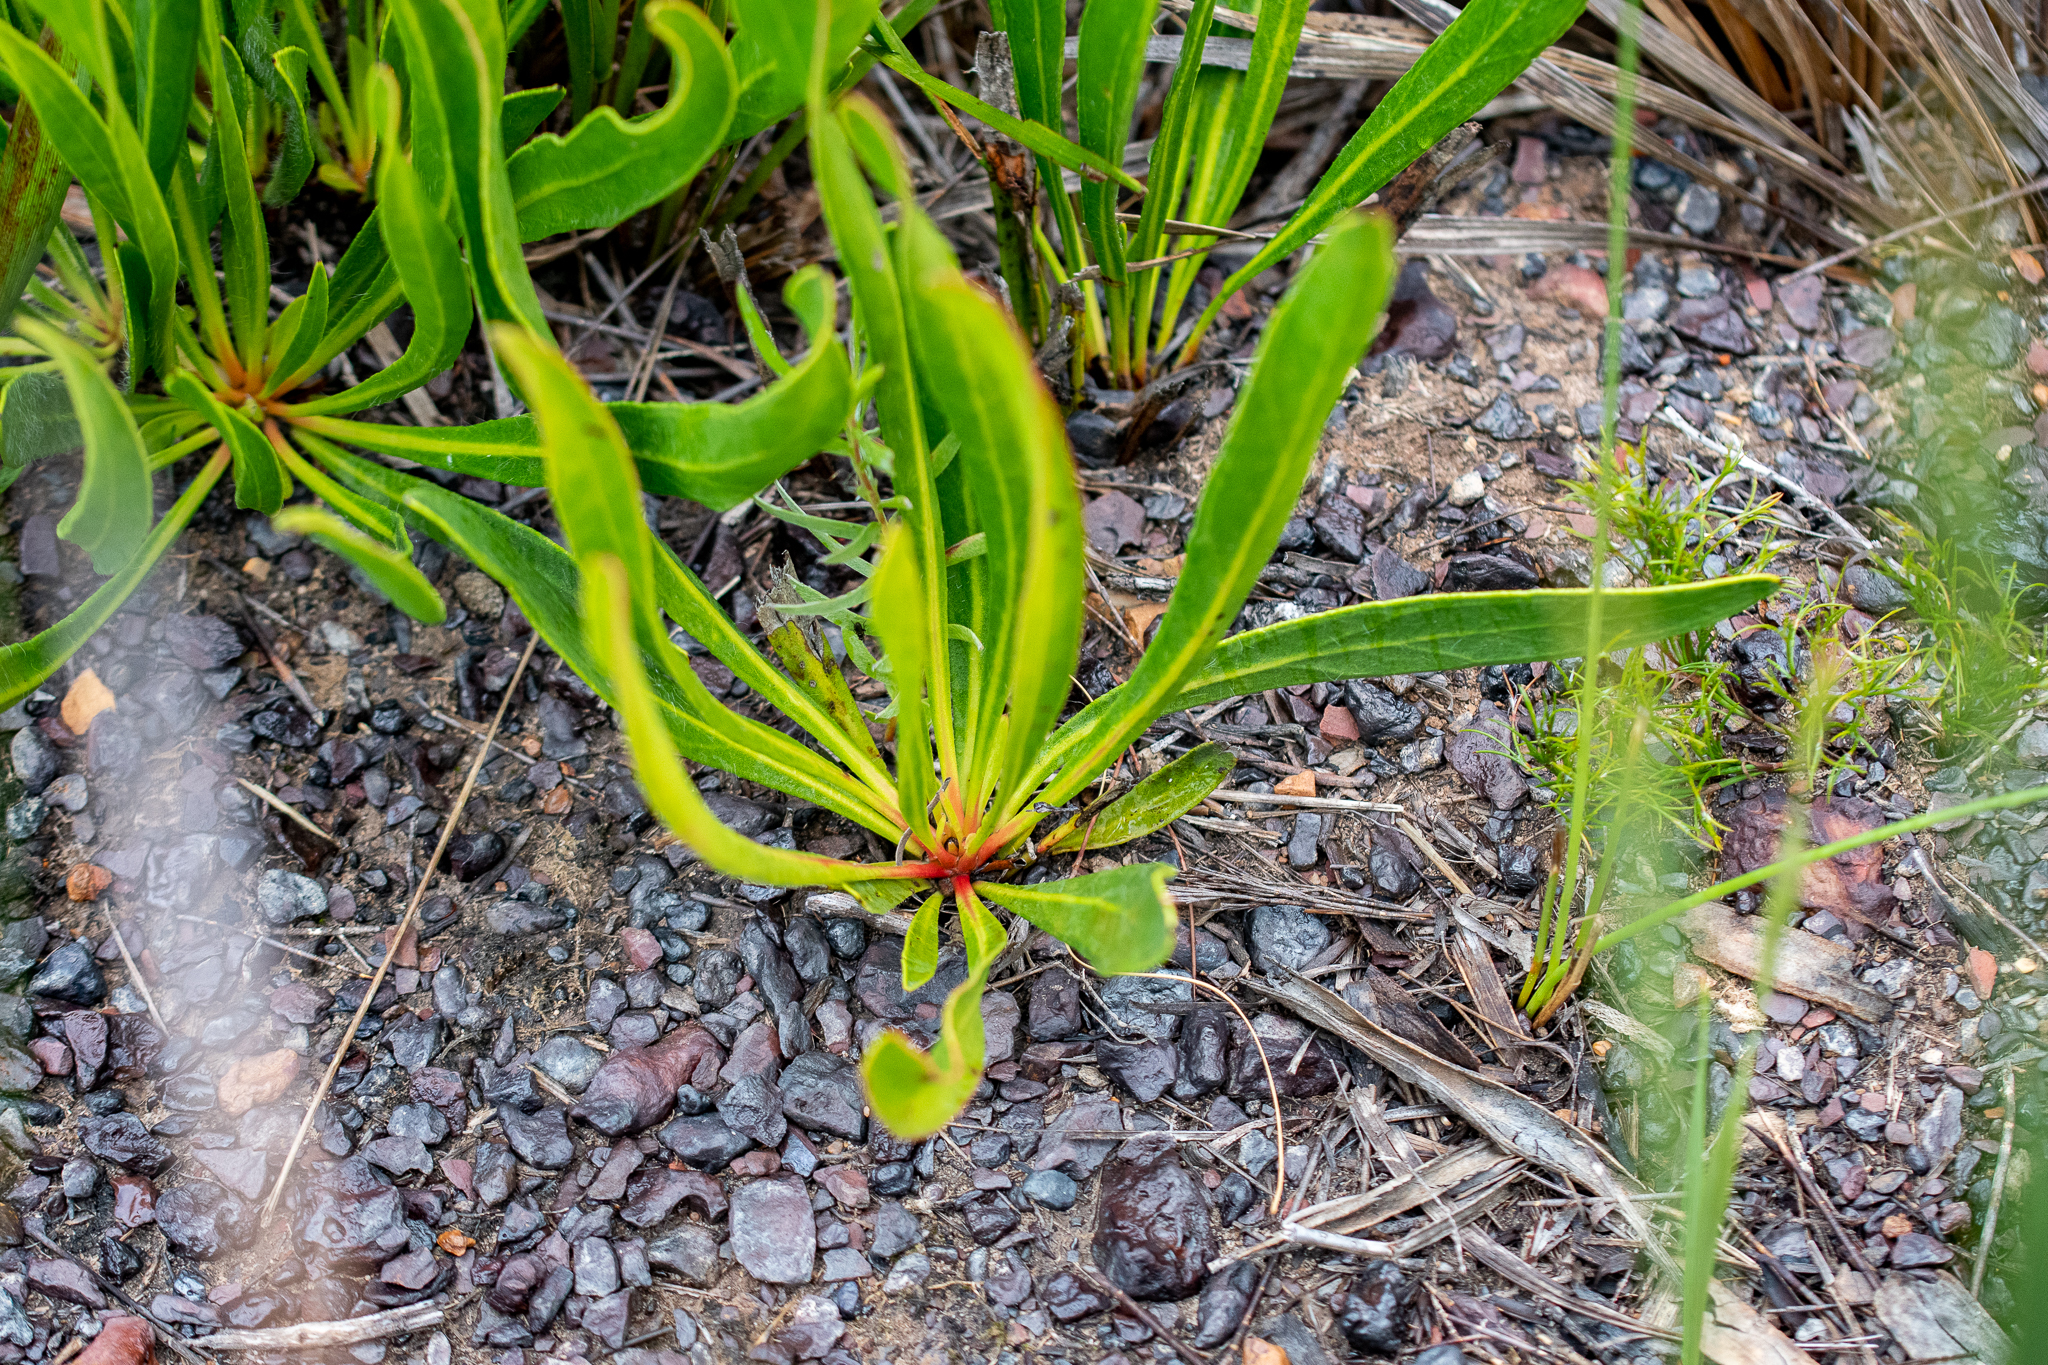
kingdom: Plantae
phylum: Tracheophyta
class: Magnoliopsida
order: Proteales
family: Proteaceae
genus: Protea
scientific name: Protea scabra
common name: Sandpaper-leaf sugarbush
